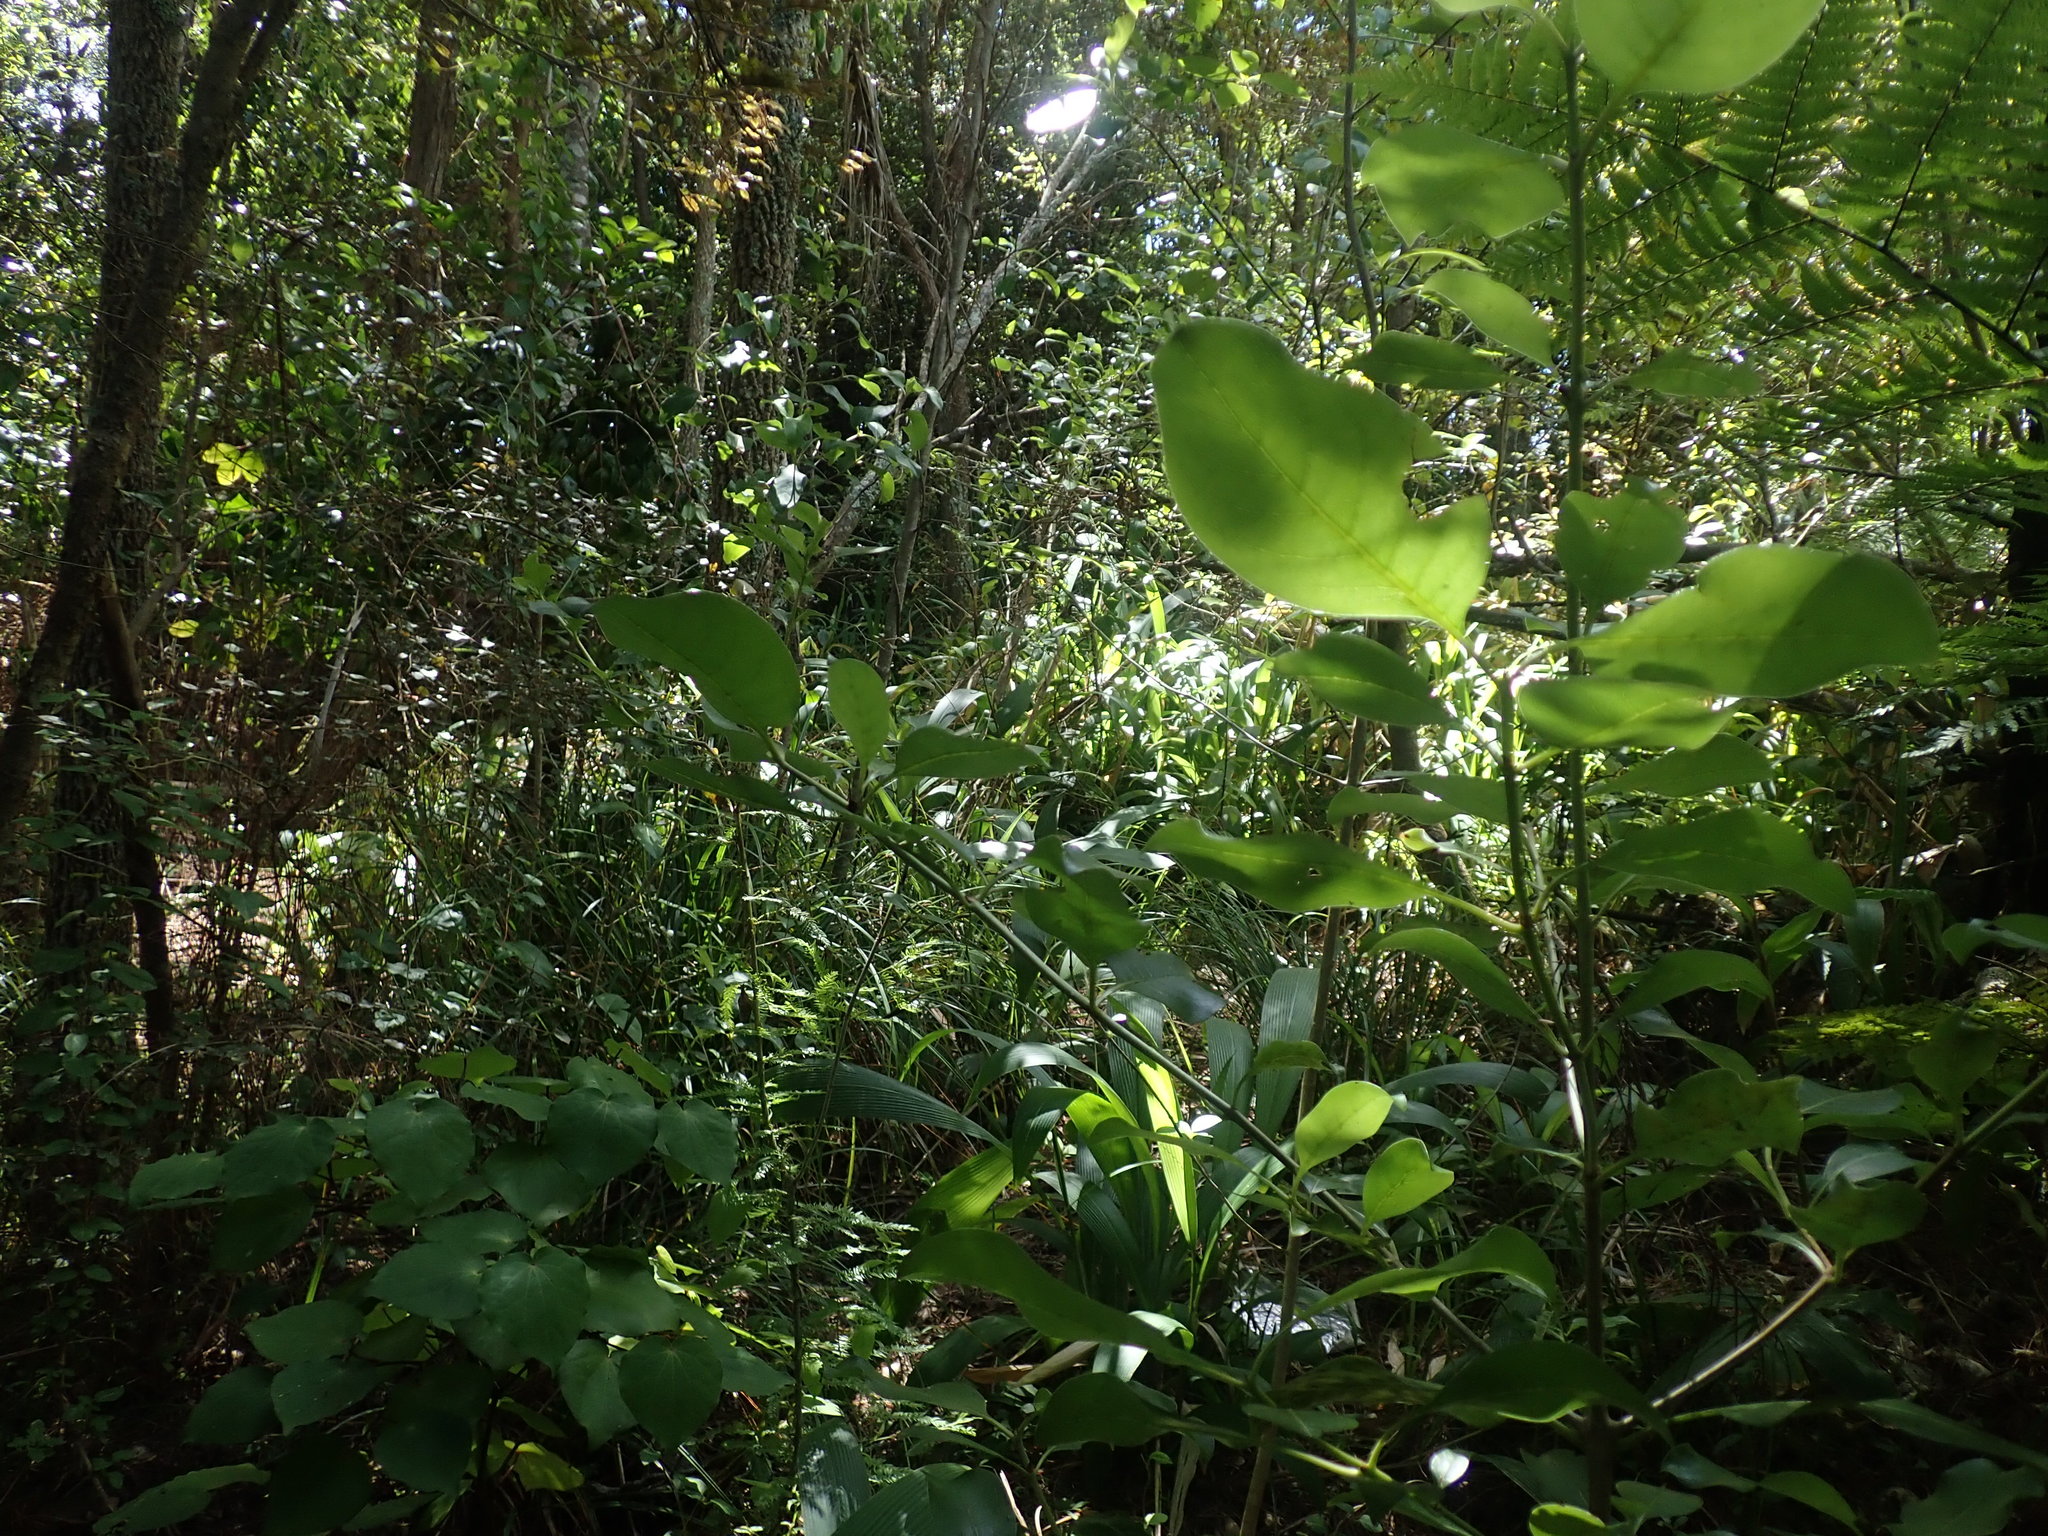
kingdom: Plantae
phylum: Tracheophyta
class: Magnoliopsida
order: Asterales
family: Rousseaceae
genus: Carpodetus
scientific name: Carpodetus serratus
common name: White mapau
